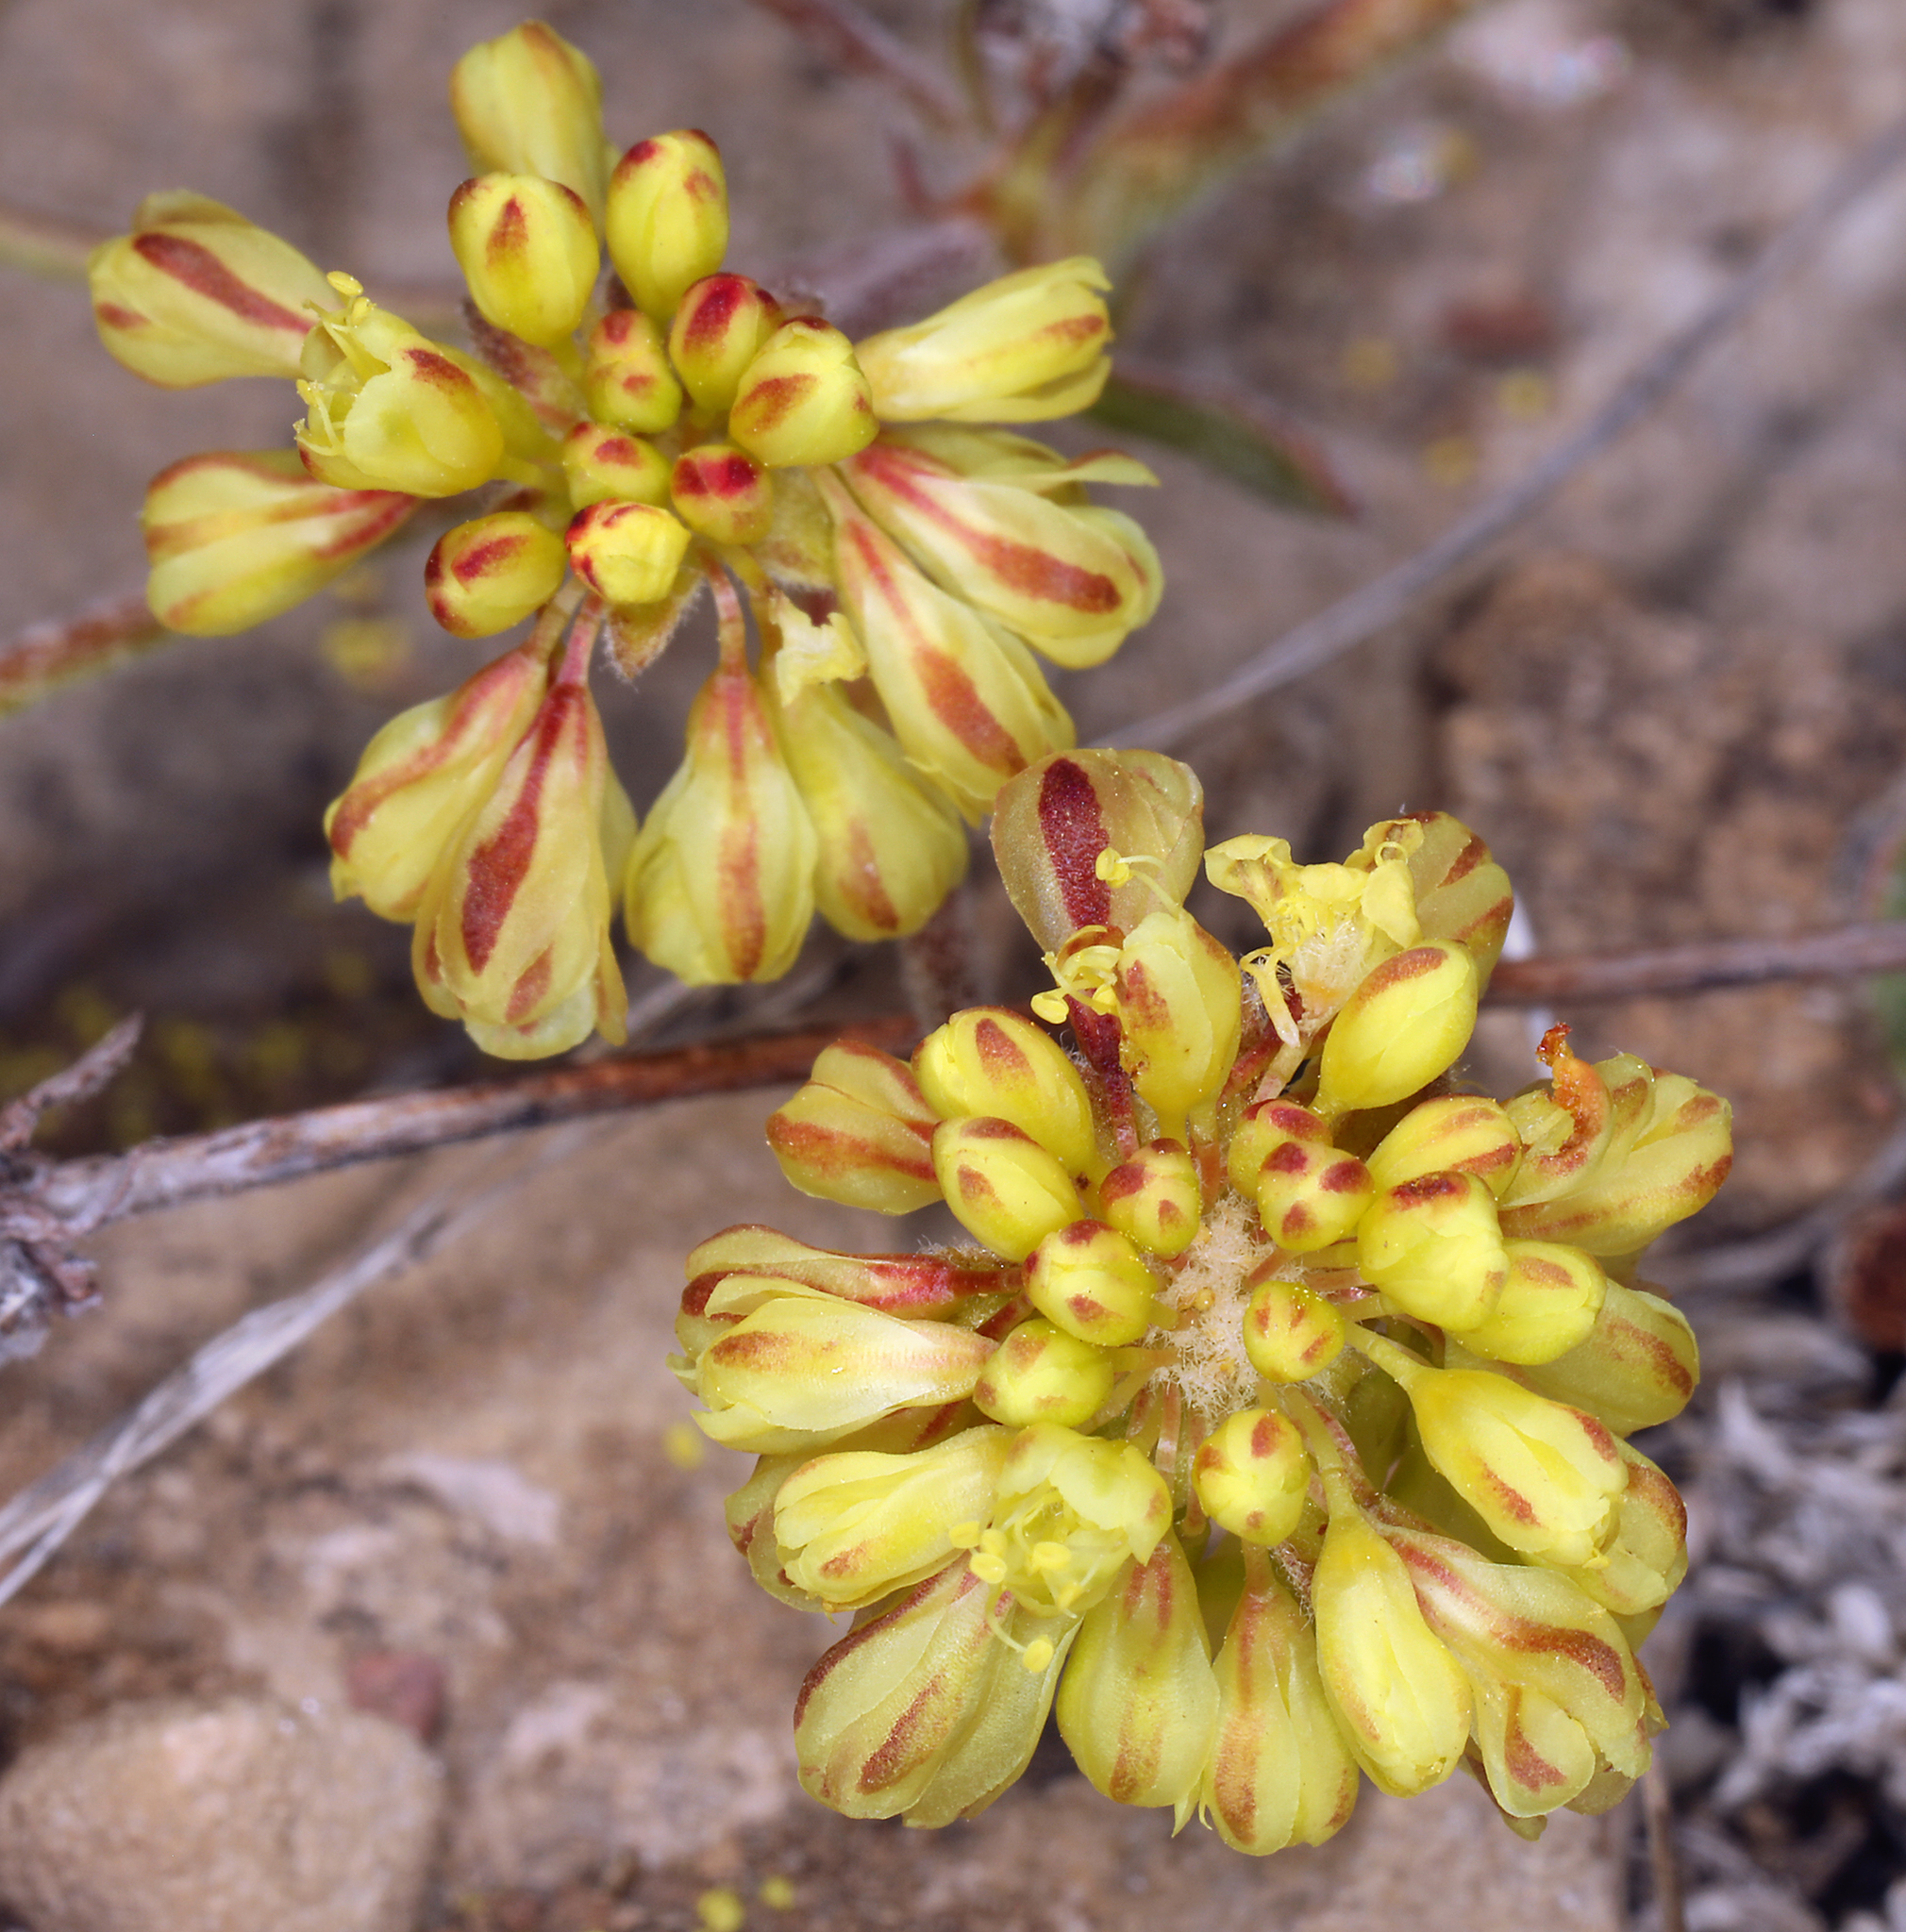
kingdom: Plantae
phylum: Tracheophyta
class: Magnoliopsida
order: Caryophyllales
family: Polygonaceae
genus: Eriogonum
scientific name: Eriogonum umbellatum
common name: Sulfur-buckwheat
